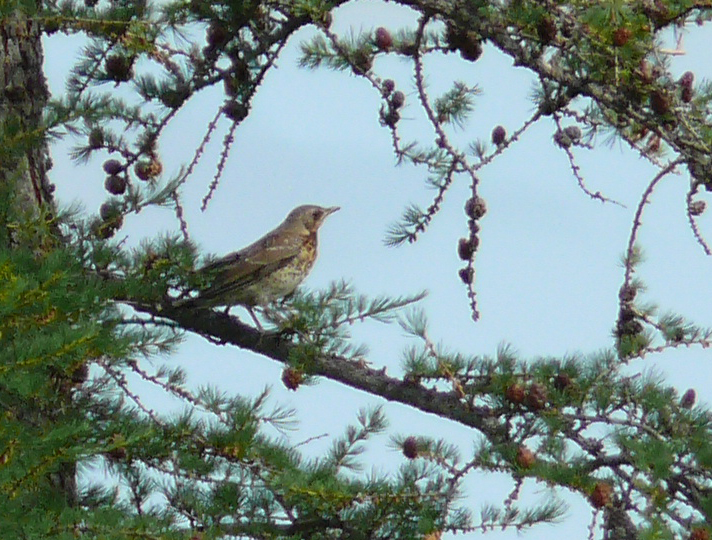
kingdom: Animalia
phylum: Chordata
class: Aves
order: Passeriformes
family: Turdidae
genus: Turdus
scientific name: Turdus pilaris
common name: Fieldfare
